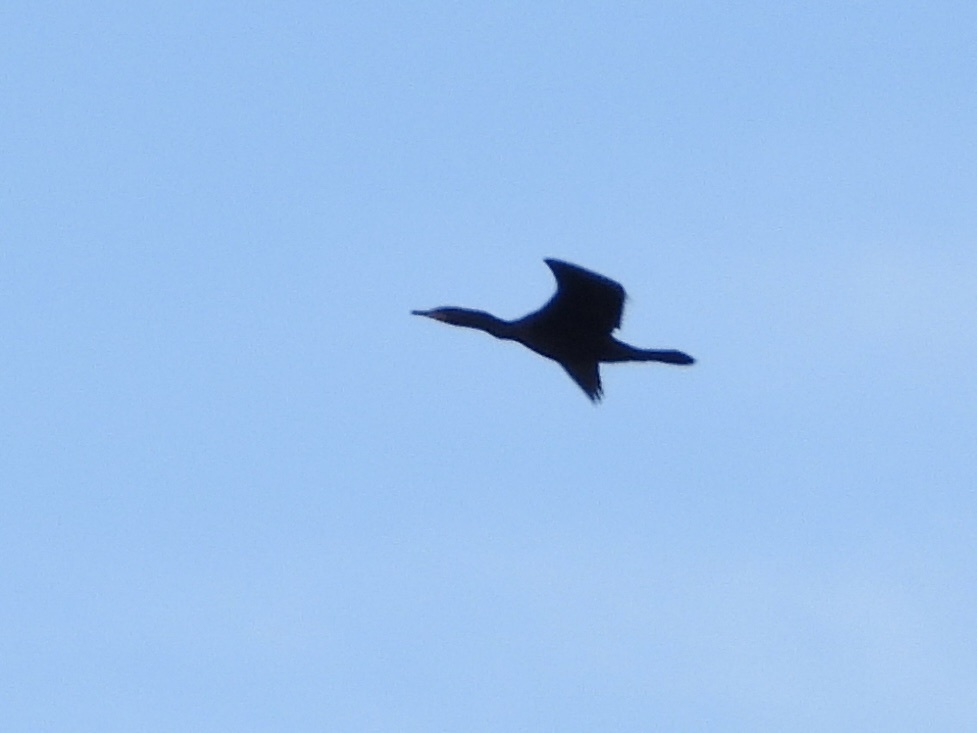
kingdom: Animalia
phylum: Chordata
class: Aves
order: Suliformes
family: Phalacrocoracidae
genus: Phalacrocorax
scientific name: Phalacrocorax auritus
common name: Double-crested cormorant
